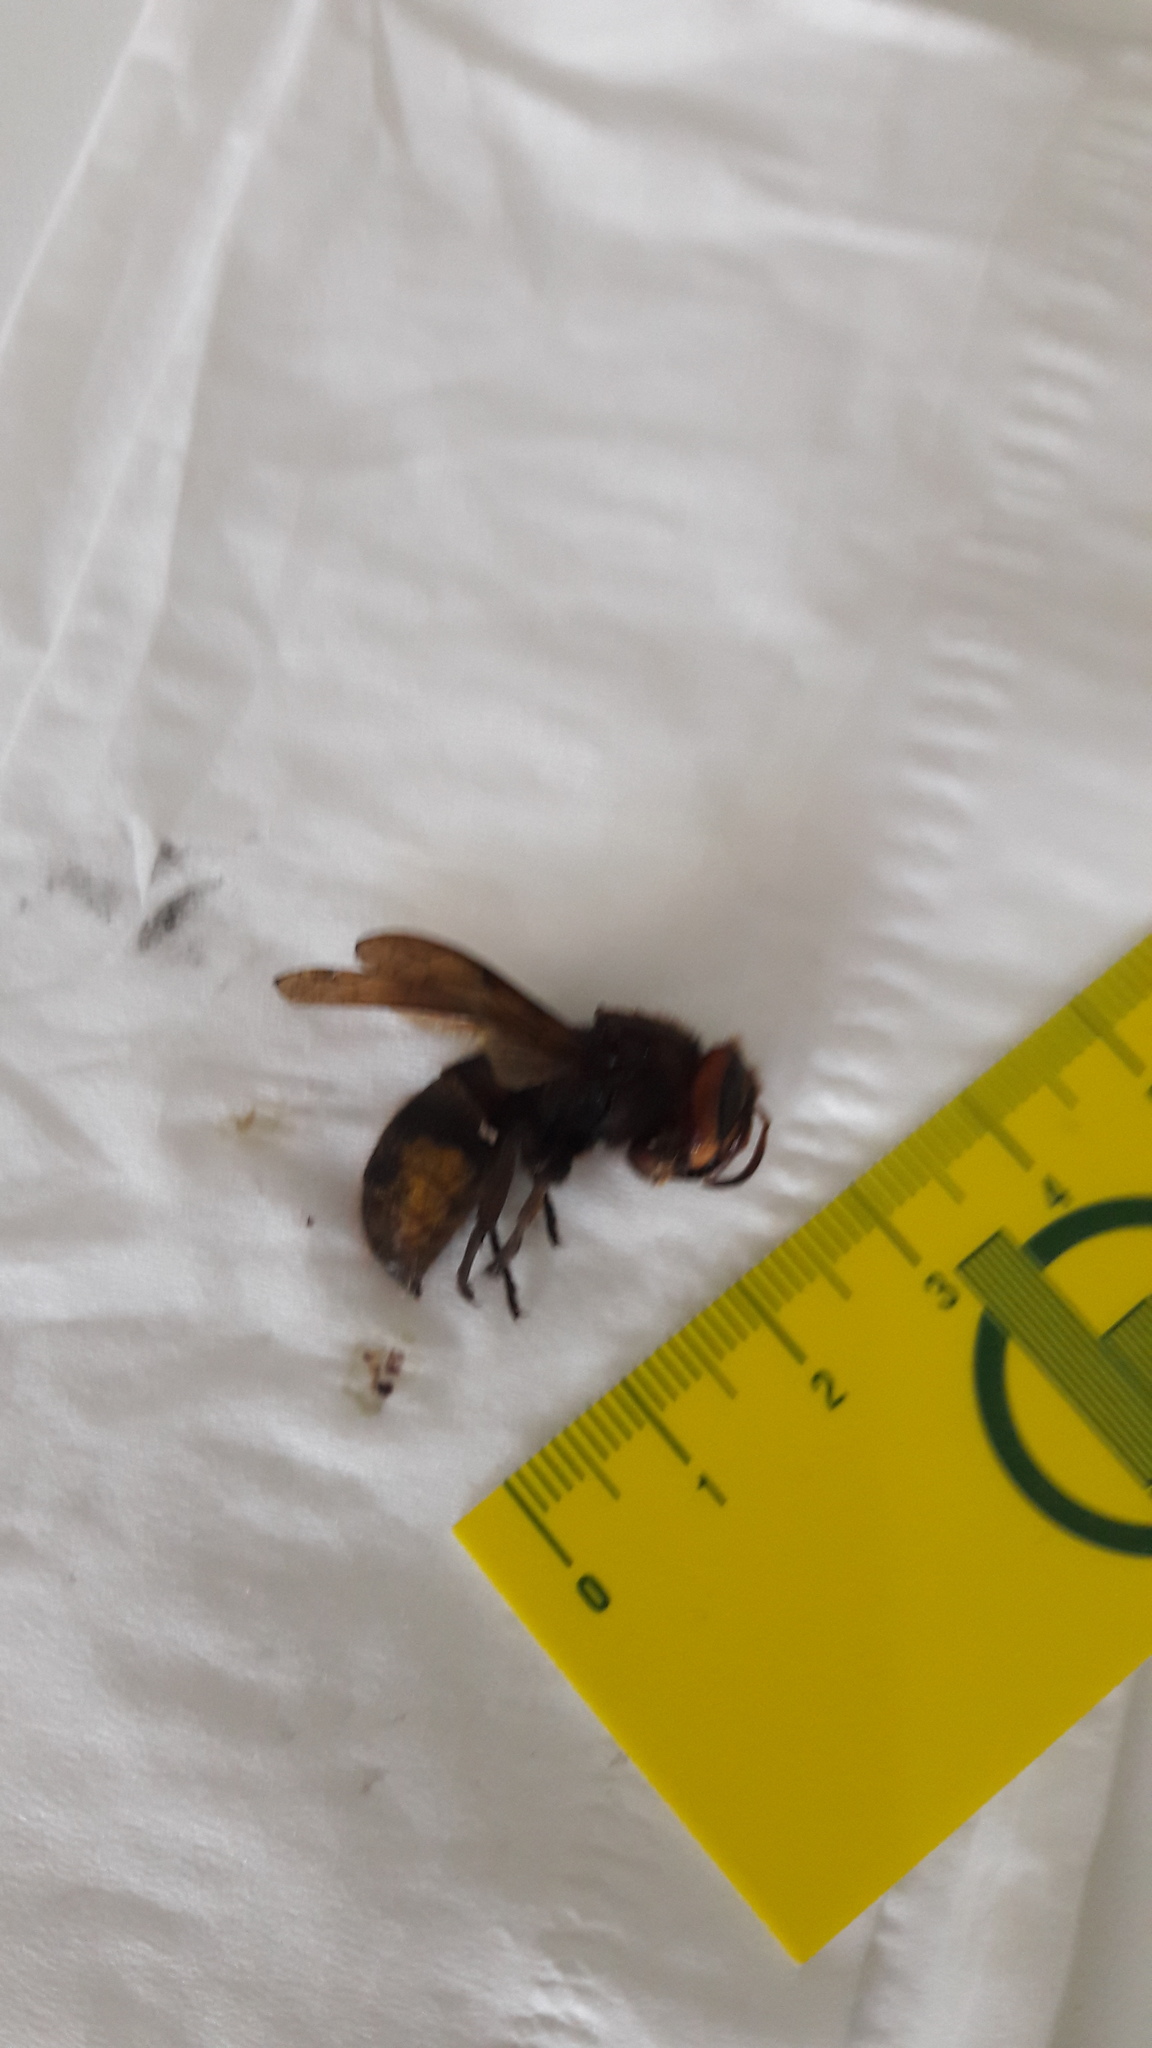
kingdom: Animalia
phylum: Arthropoda
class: Insecta
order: Hymenoptera
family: Vespidae
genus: Vespa
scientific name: Vespa crabro
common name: Hornet
